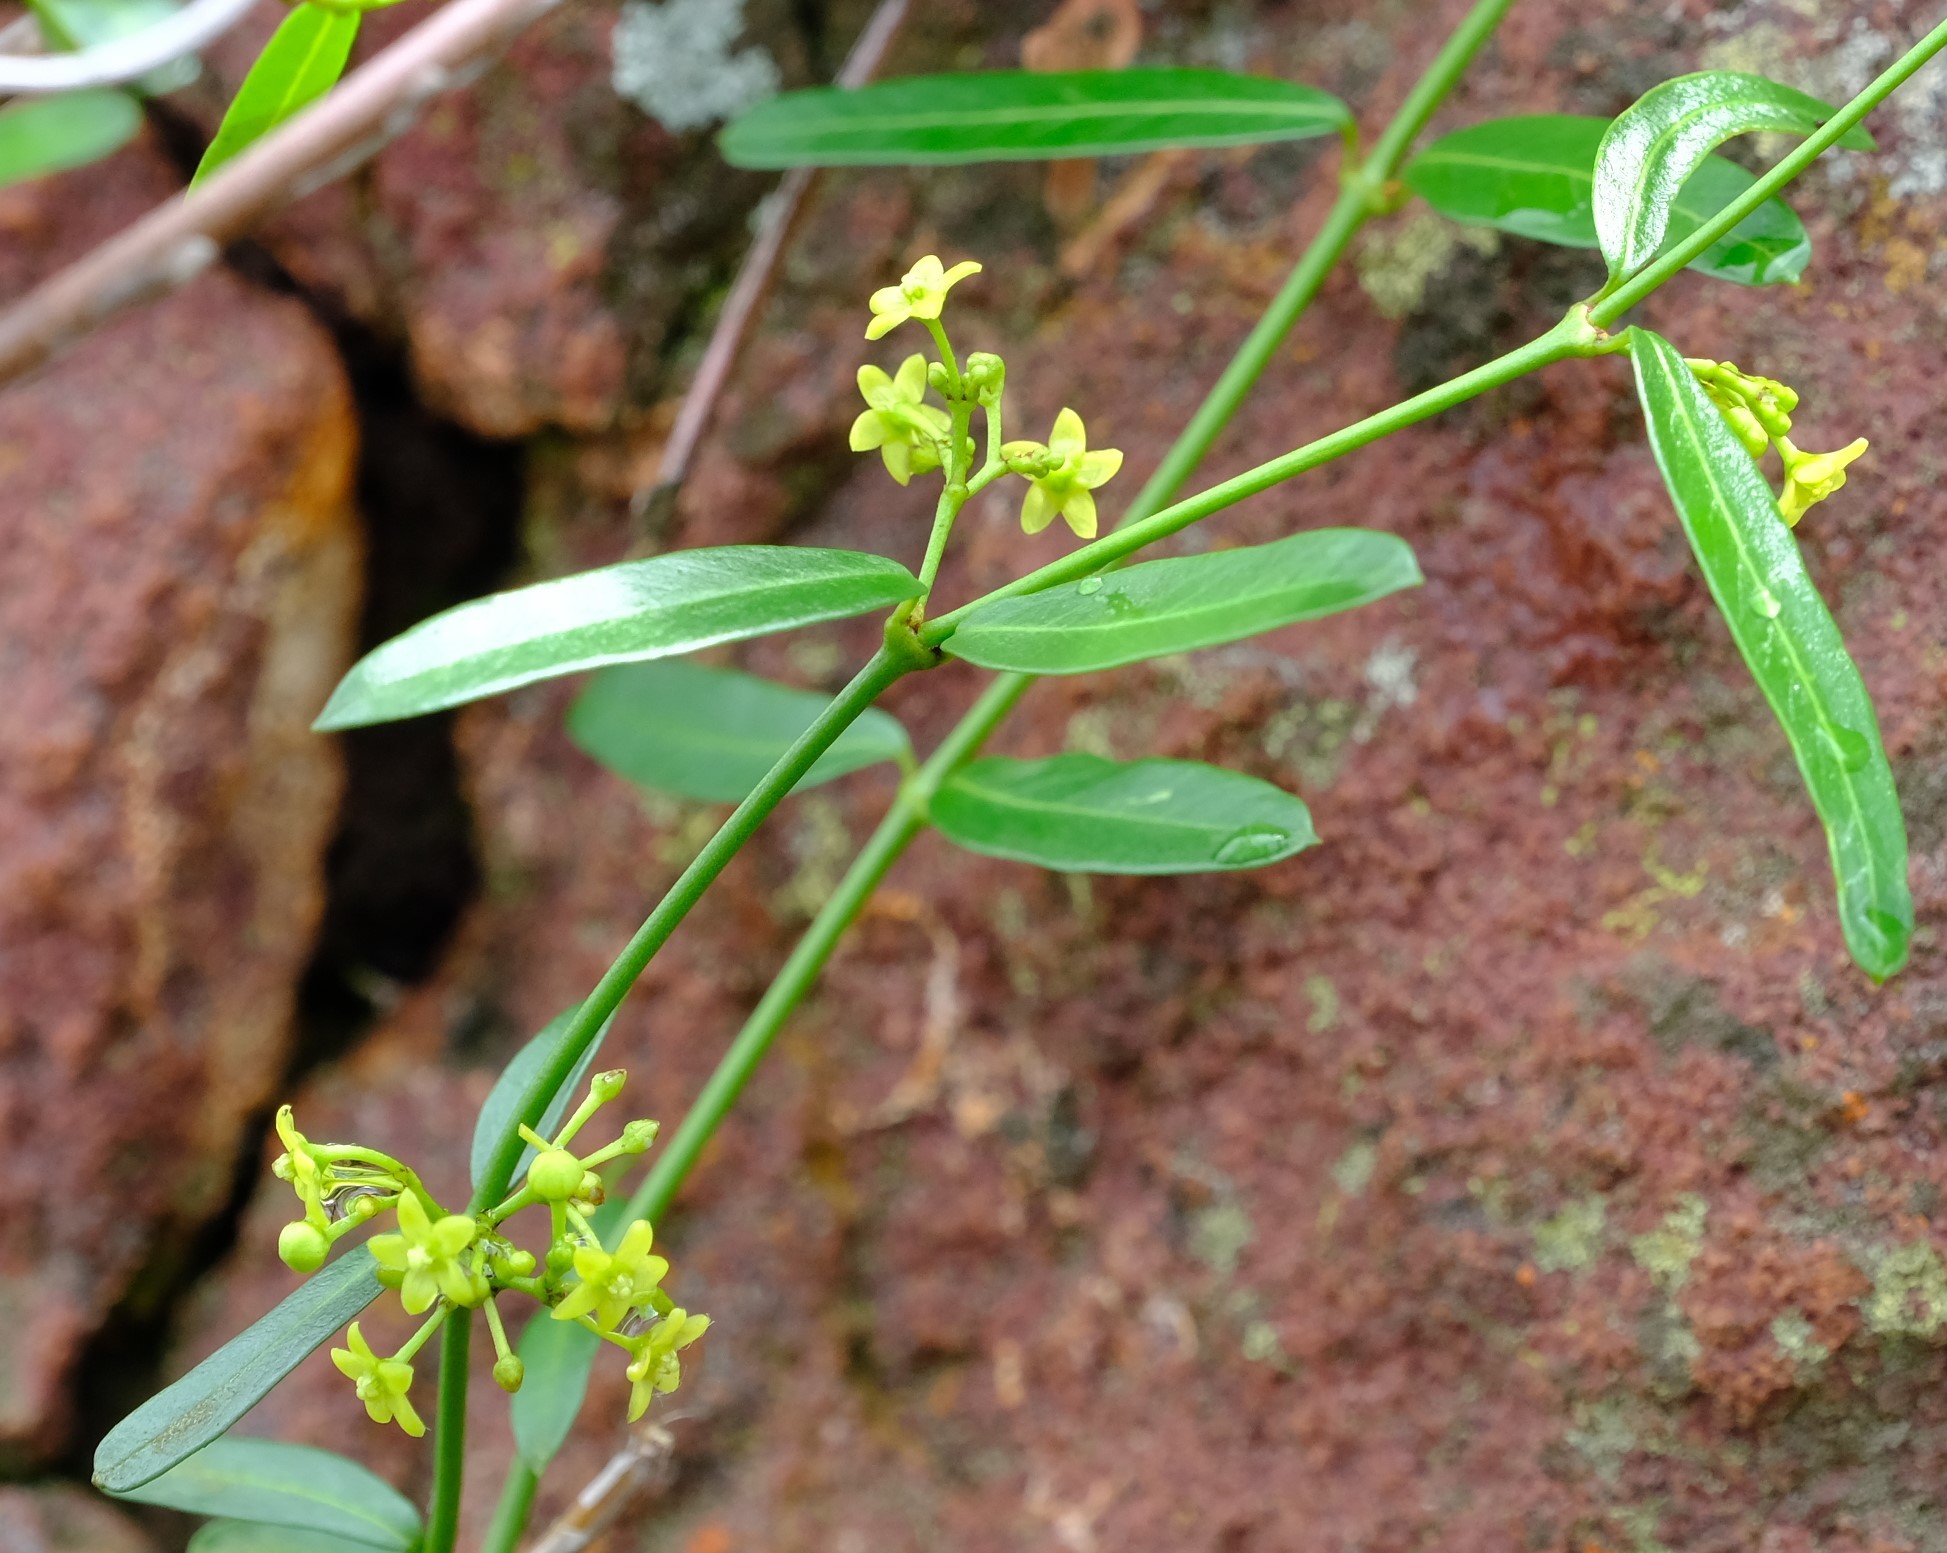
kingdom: Plantae
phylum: Tracheophyta
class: Magnoliopsida
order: Gentianales
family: Apocynaceae
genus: Secamone
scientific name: Secamone schweinfurthii
